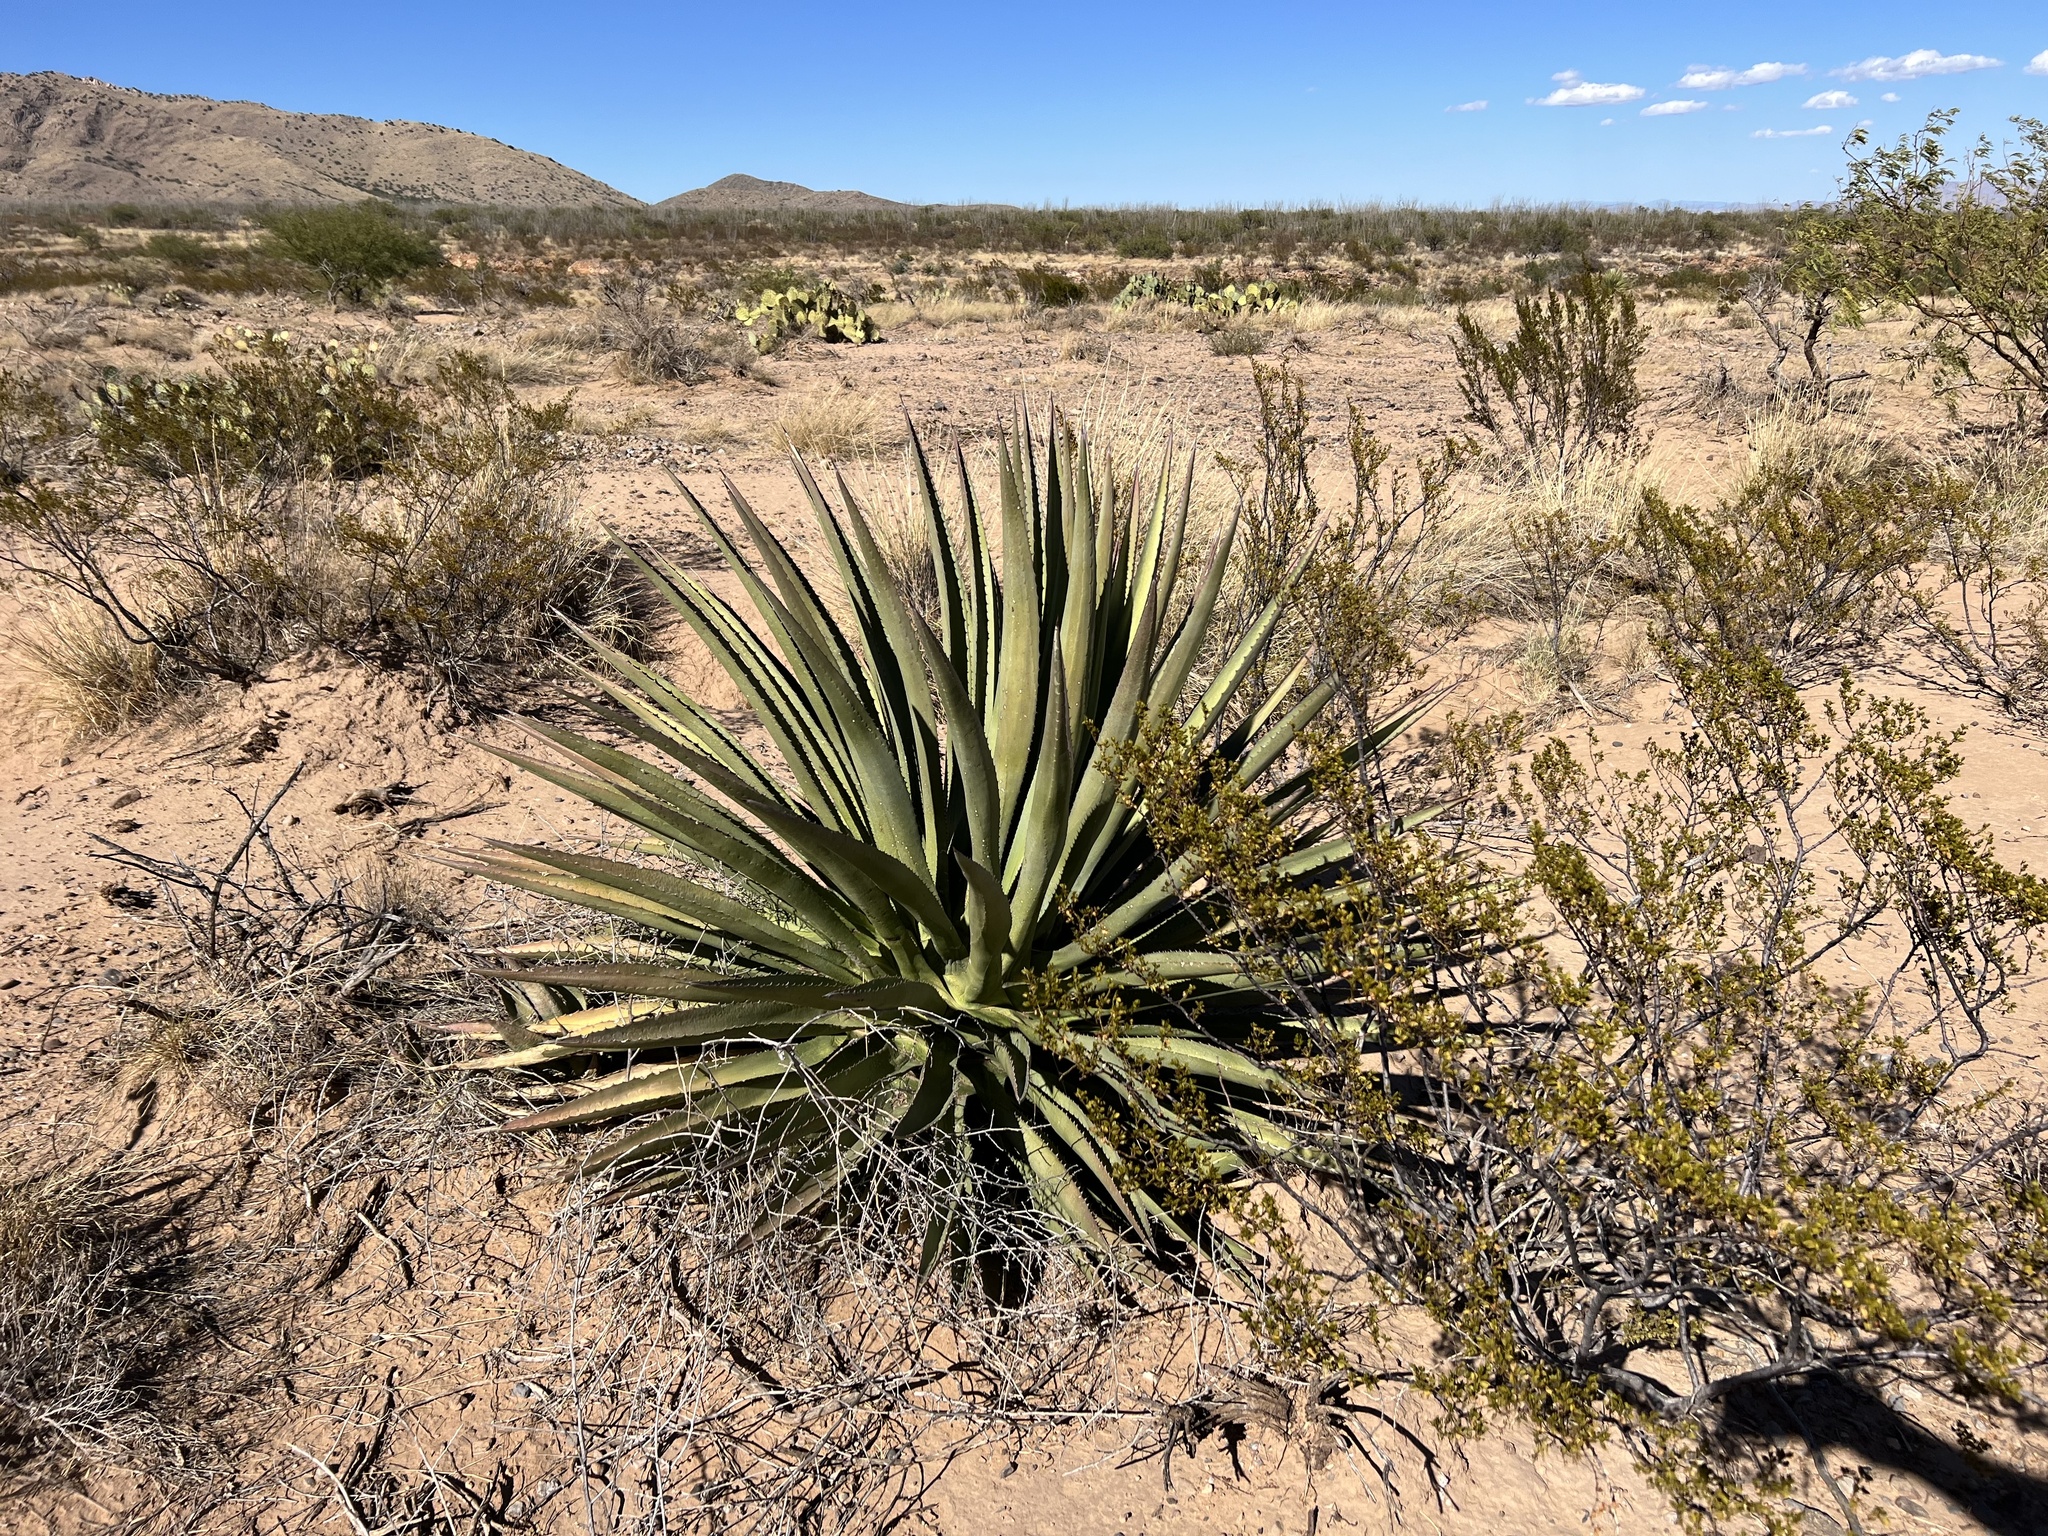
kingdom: Plantae
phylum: Tracheophyta
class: Liliopsida
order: Asparagales
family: Asparagaceae
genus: Agave
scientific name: Agave palmeri
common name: Palmer agave
